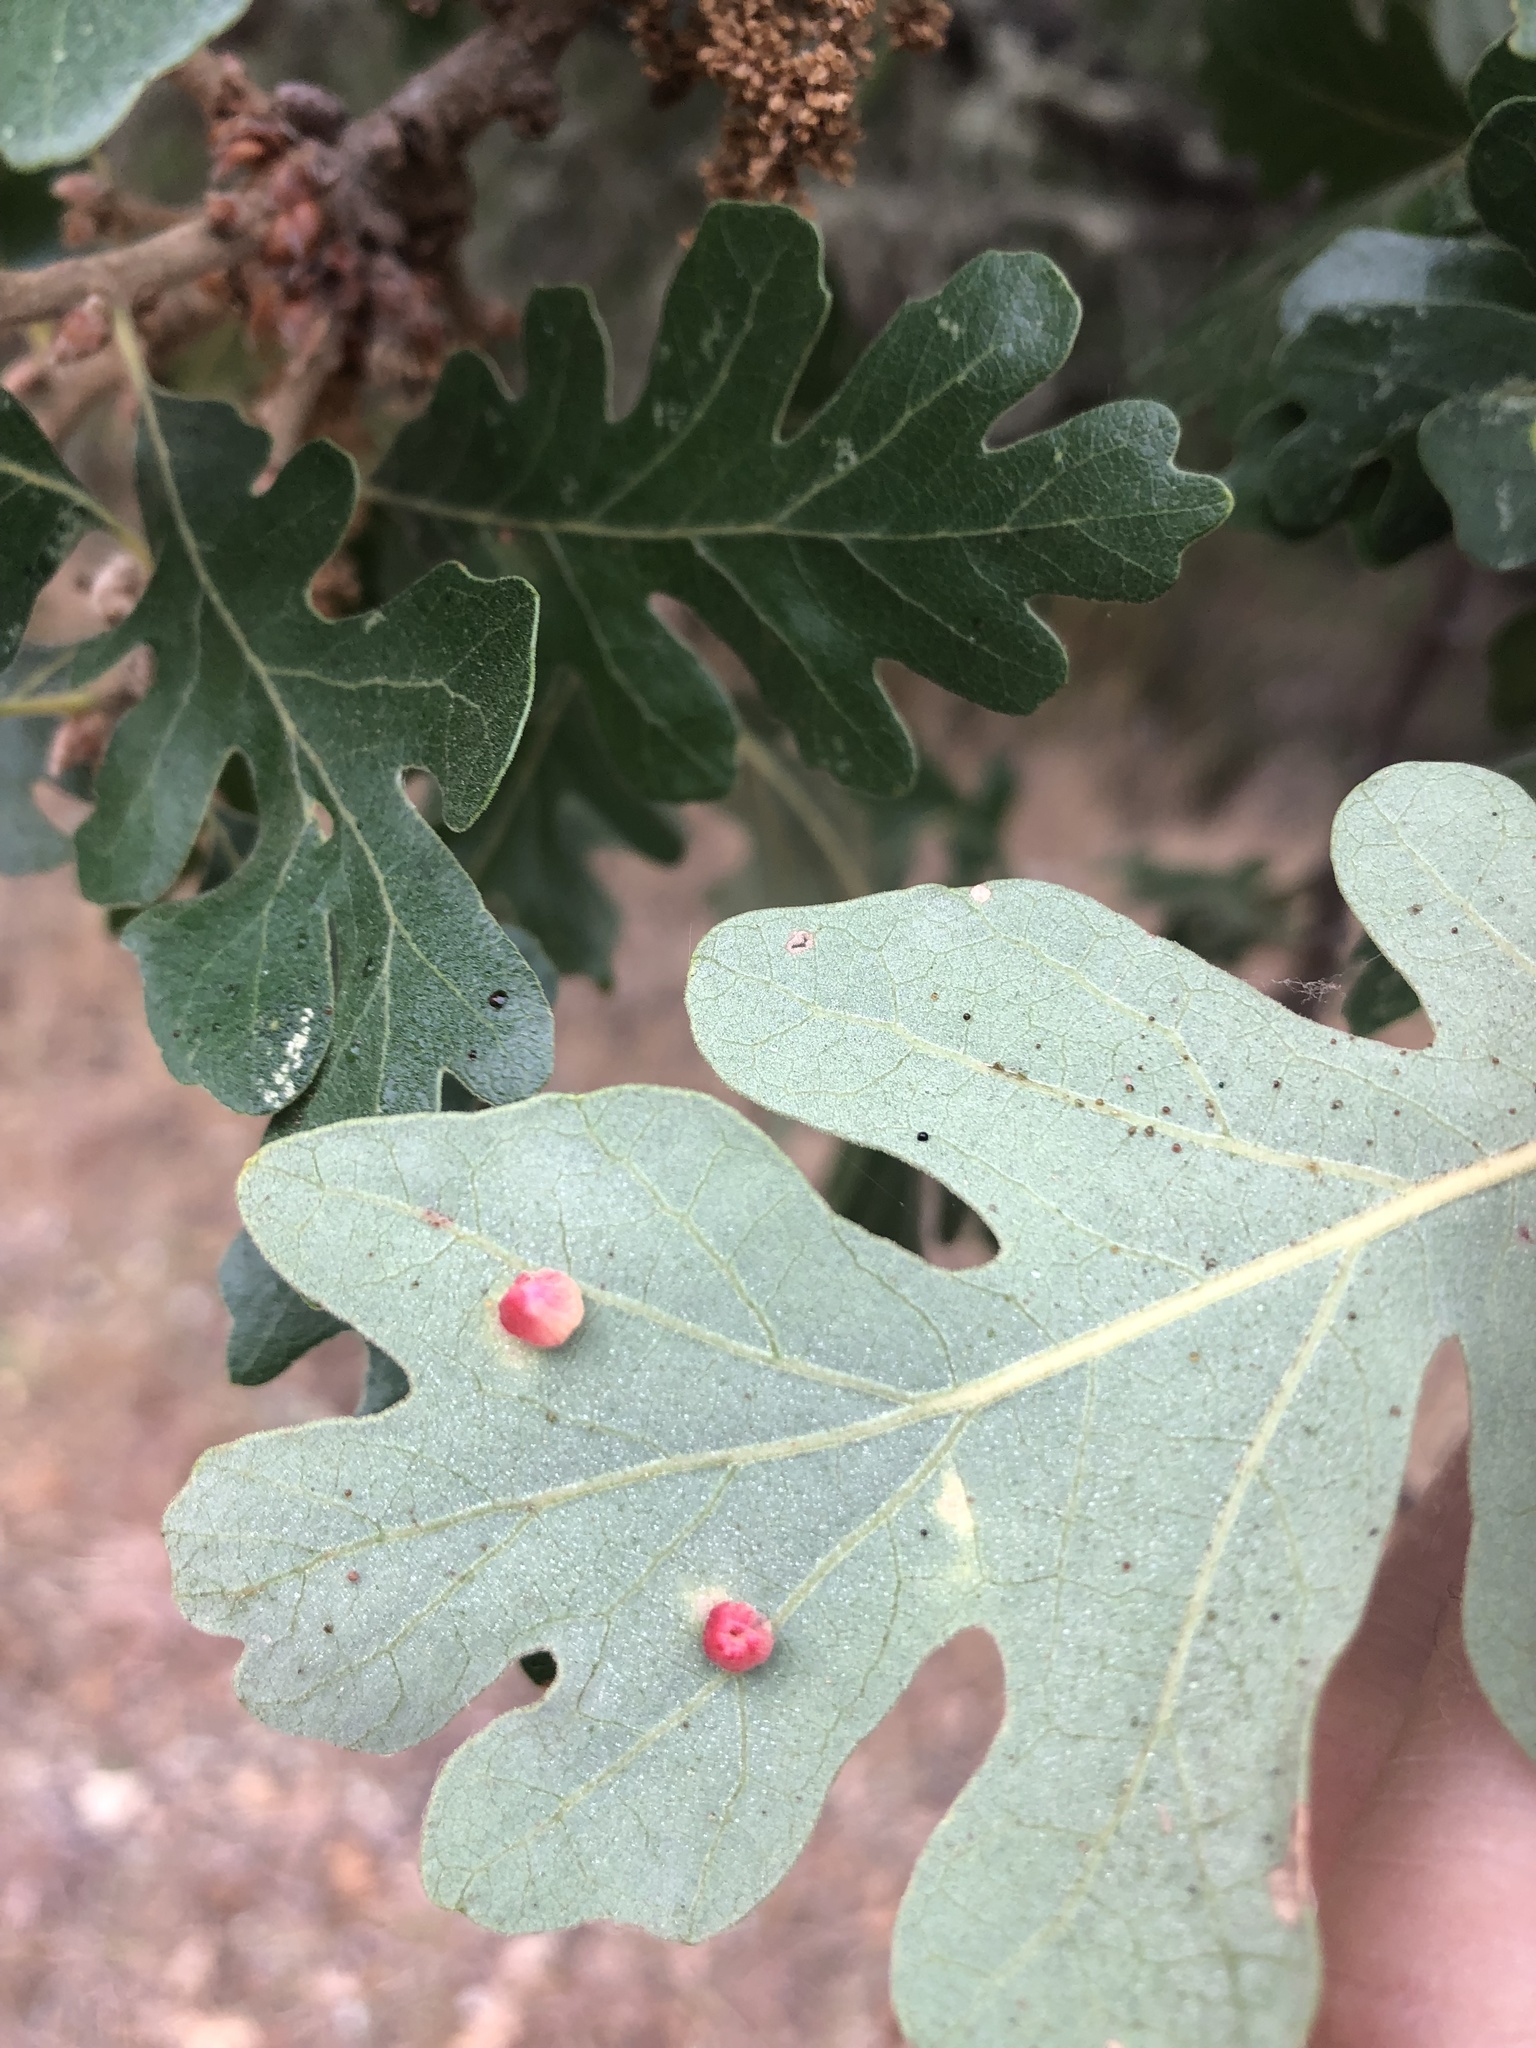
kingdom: Animalia
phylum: Arthropoda
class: Insecta
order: Hymenoptera
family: Cynipidae
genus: Andricus
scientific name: Andricus
